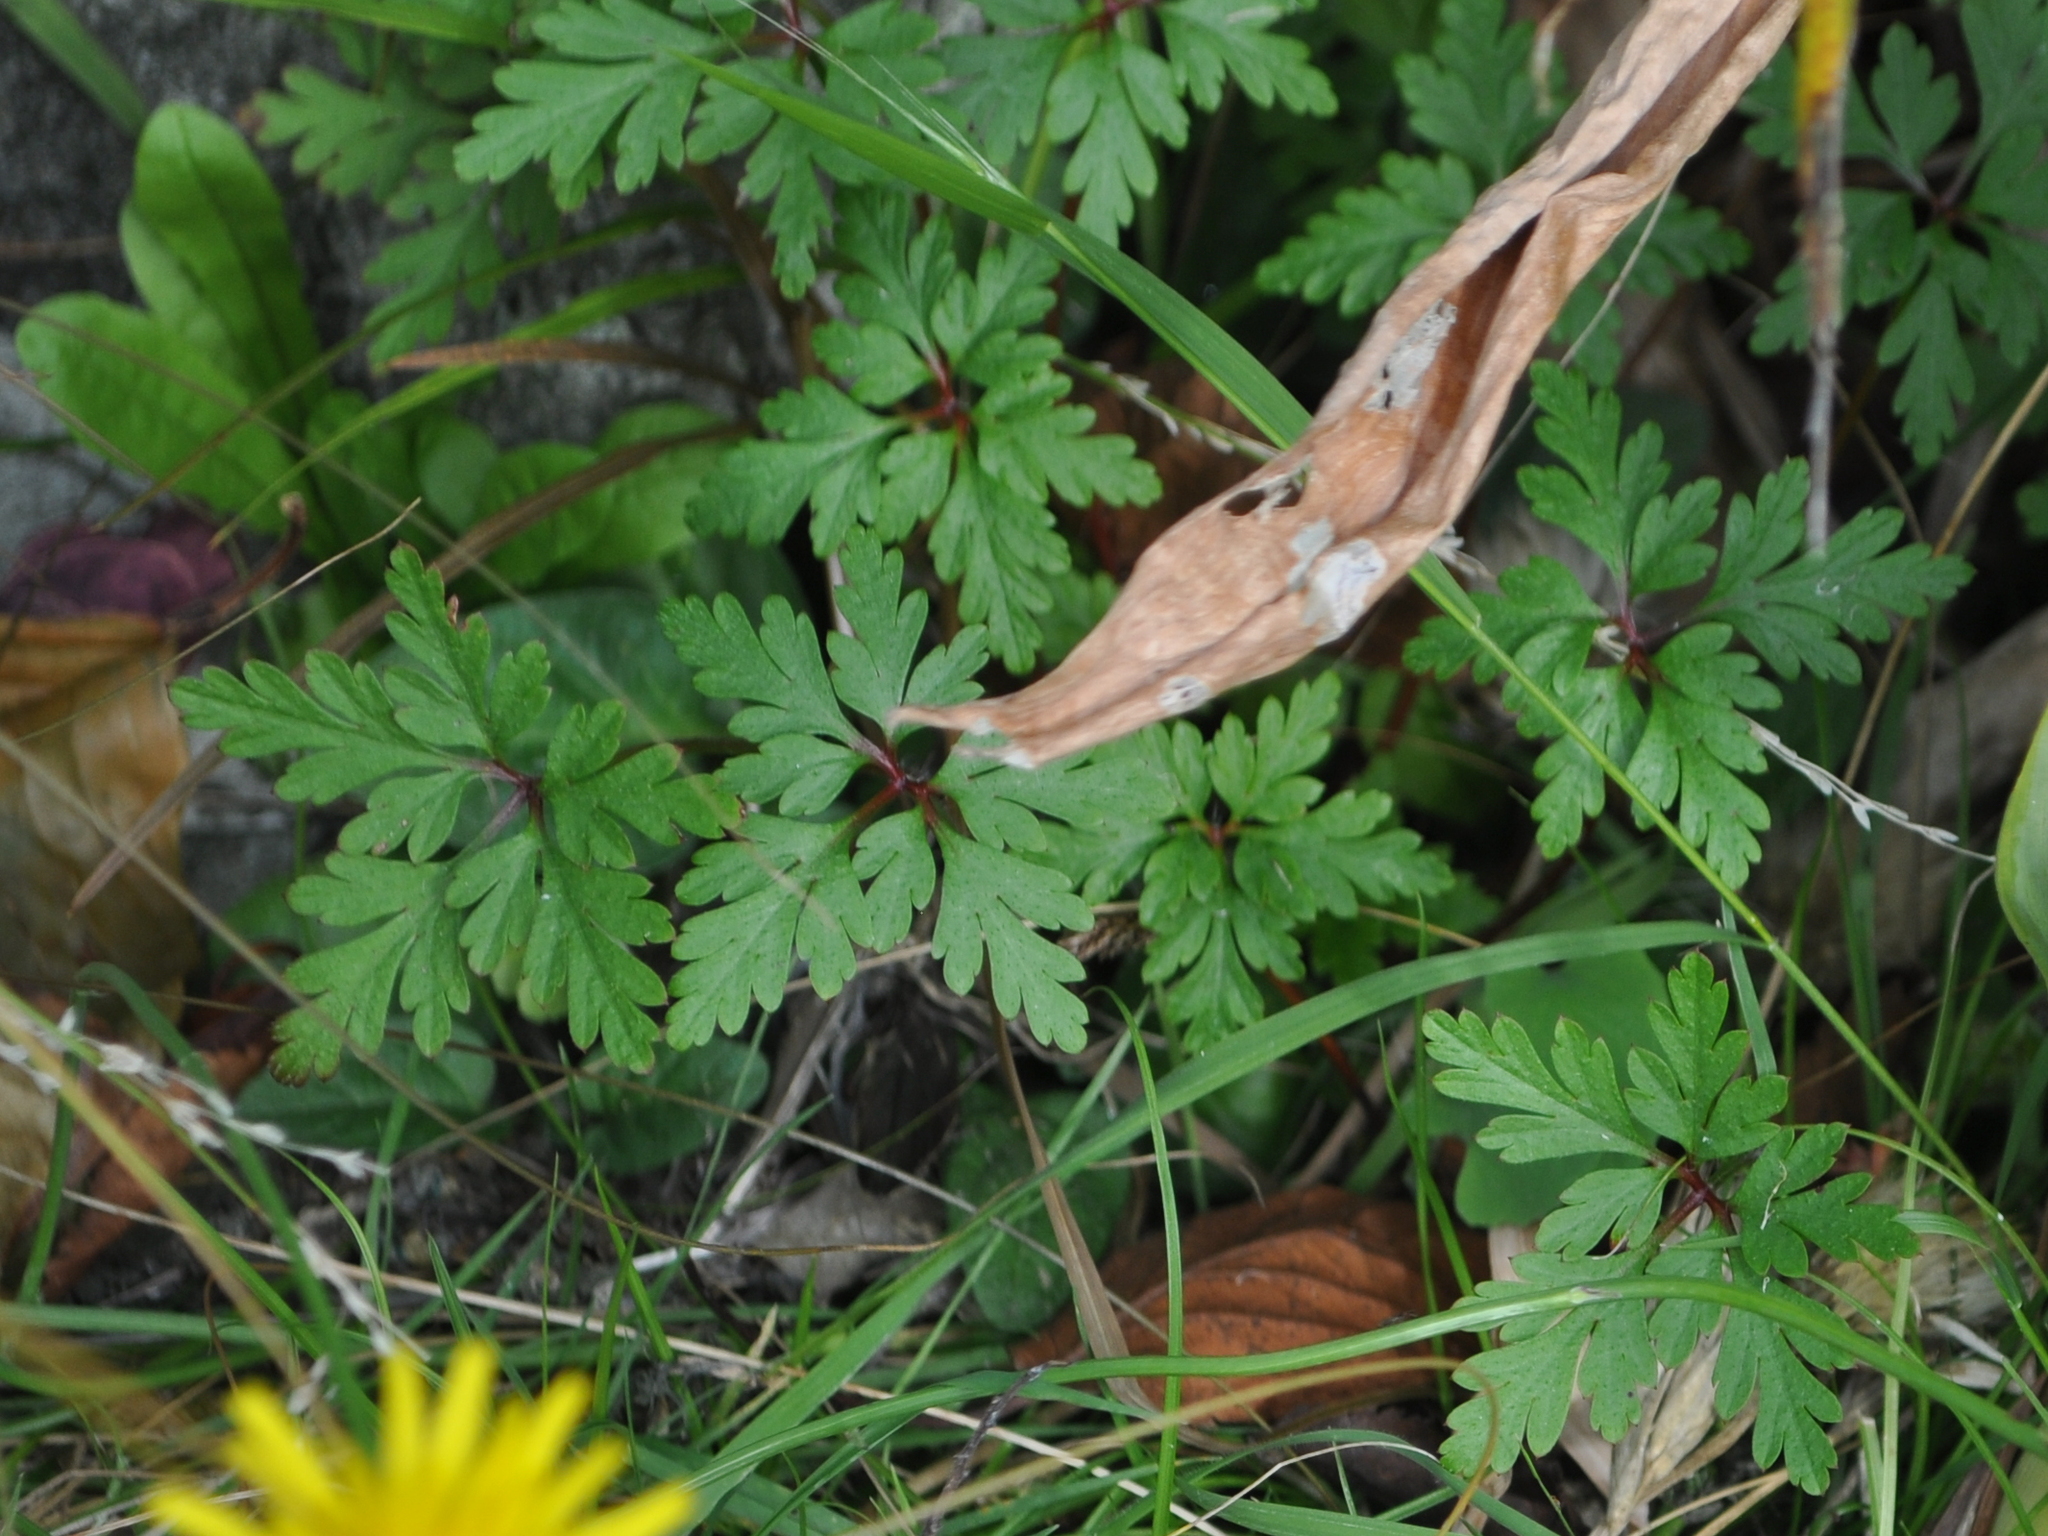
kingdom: Plantae
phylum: Tracheophyta
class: Magnoliopsida
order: Geraniales
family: Geraniaceae
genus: Geranium
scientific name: Geranium robertianum
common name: Herb-robert
